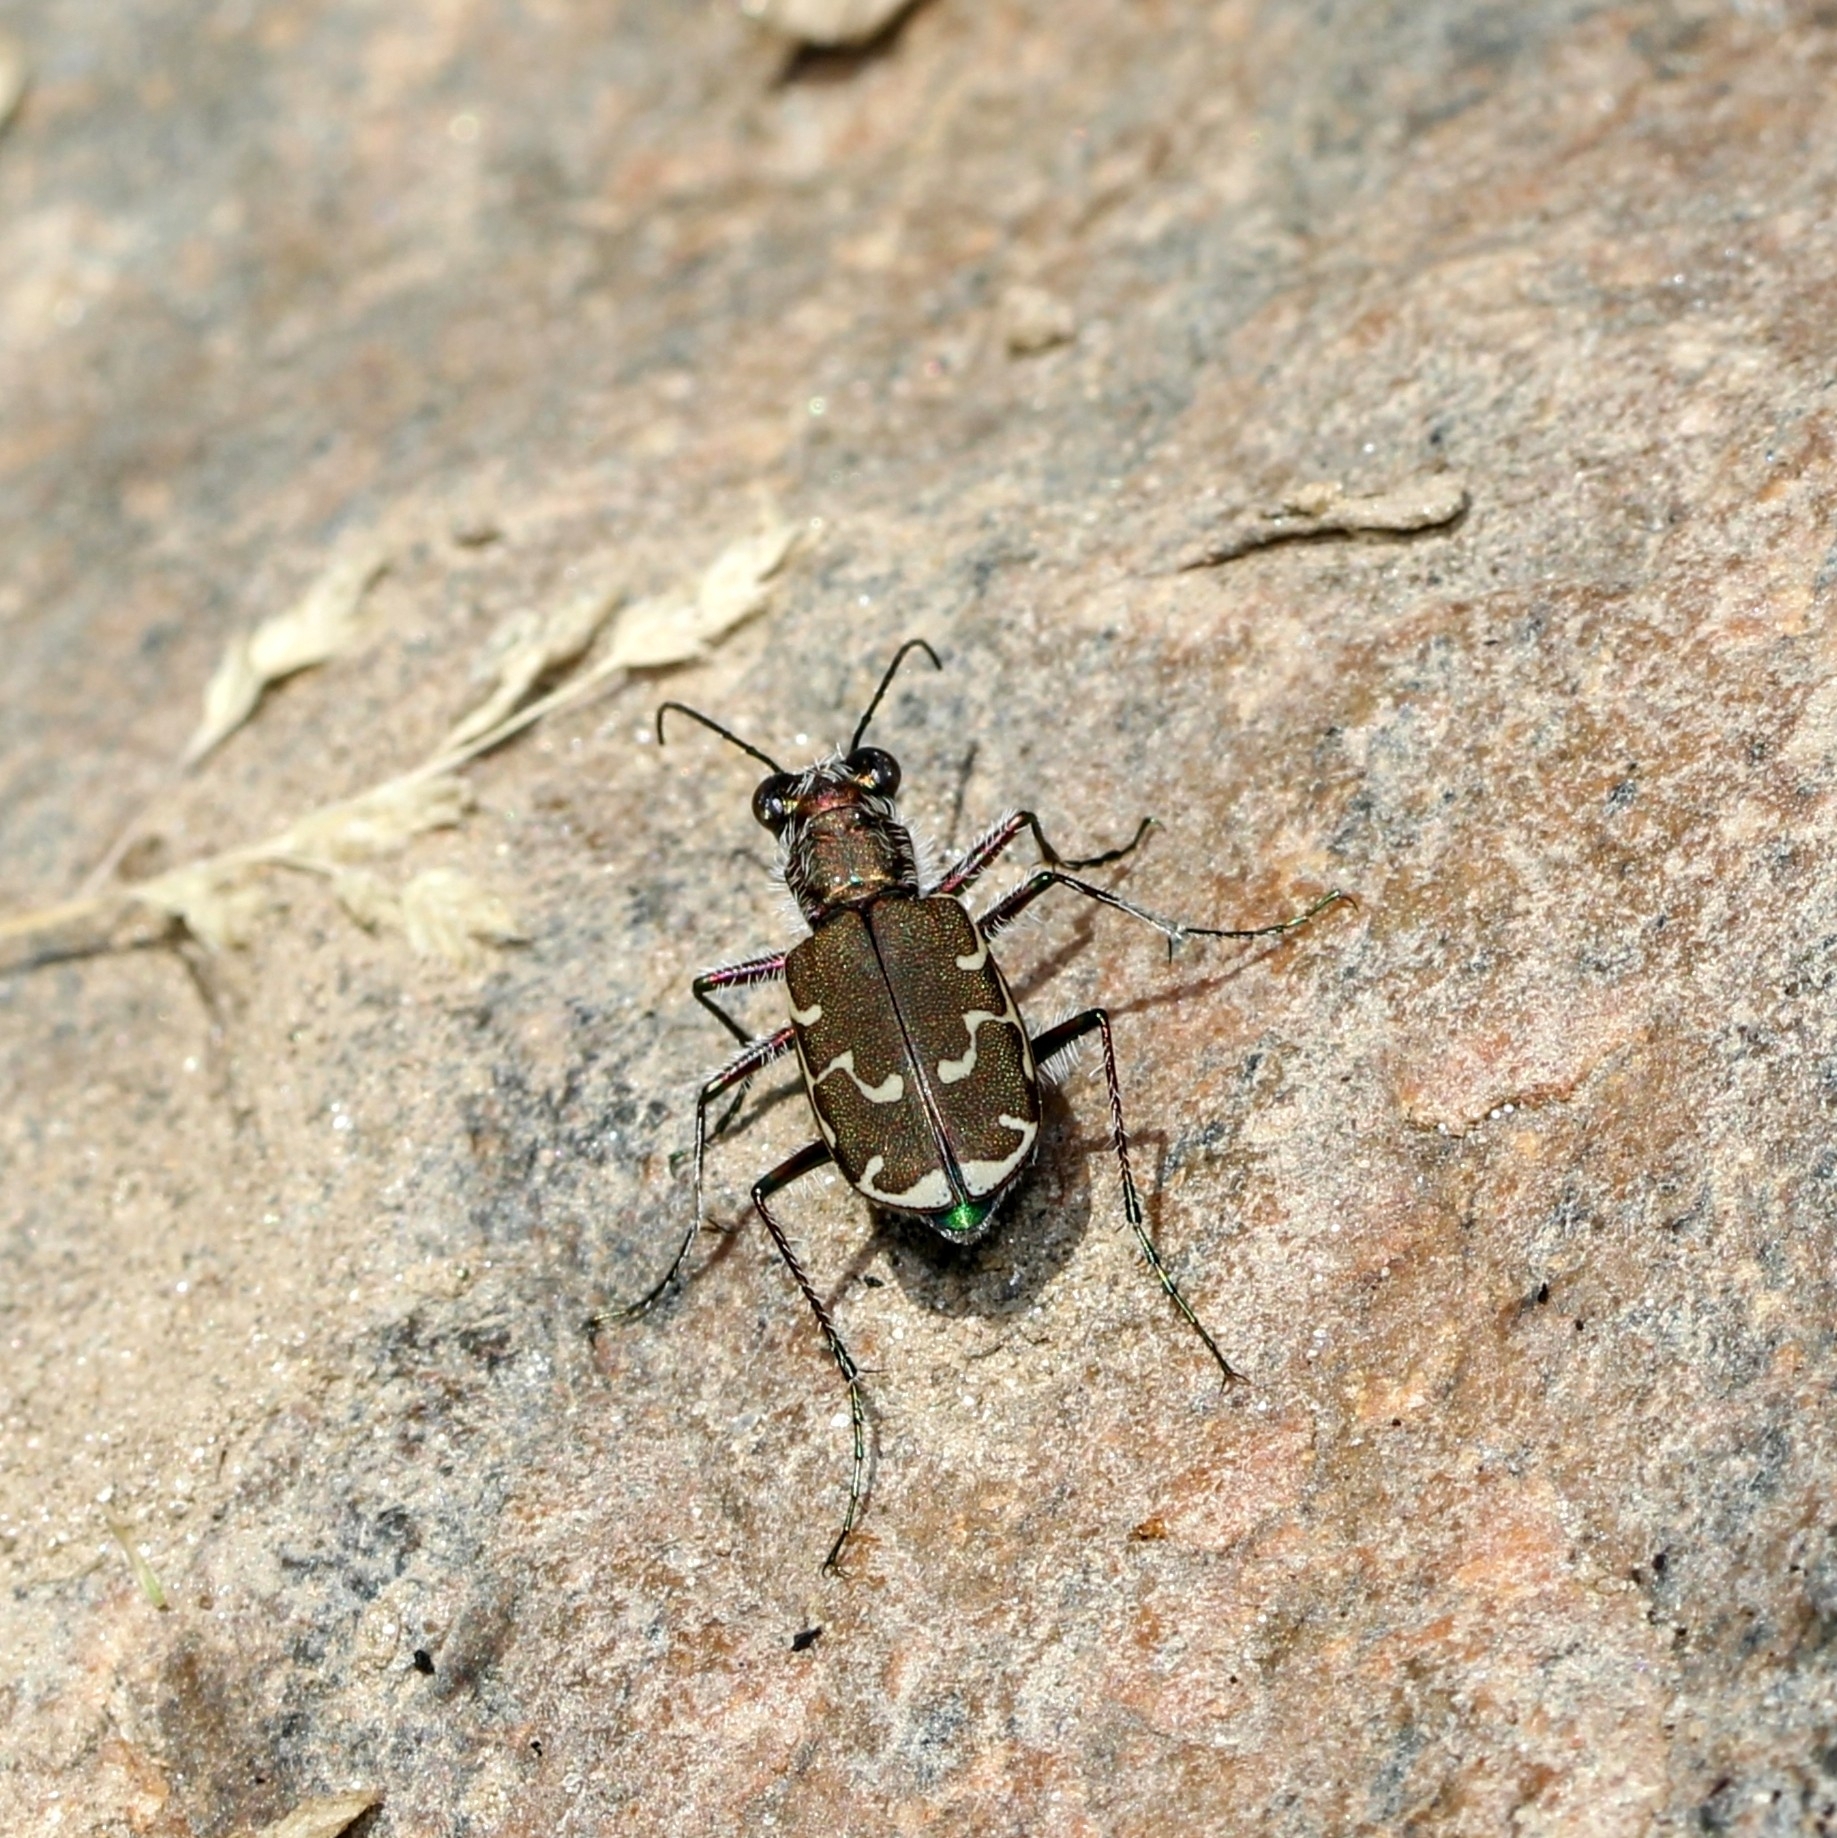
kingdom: Animalia
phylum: Arthropoda
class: Insecta
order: Coleoptera
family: Carabidae
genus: Cicindela
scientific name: Cicindela repanda
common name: Bronzed tiger beetle
